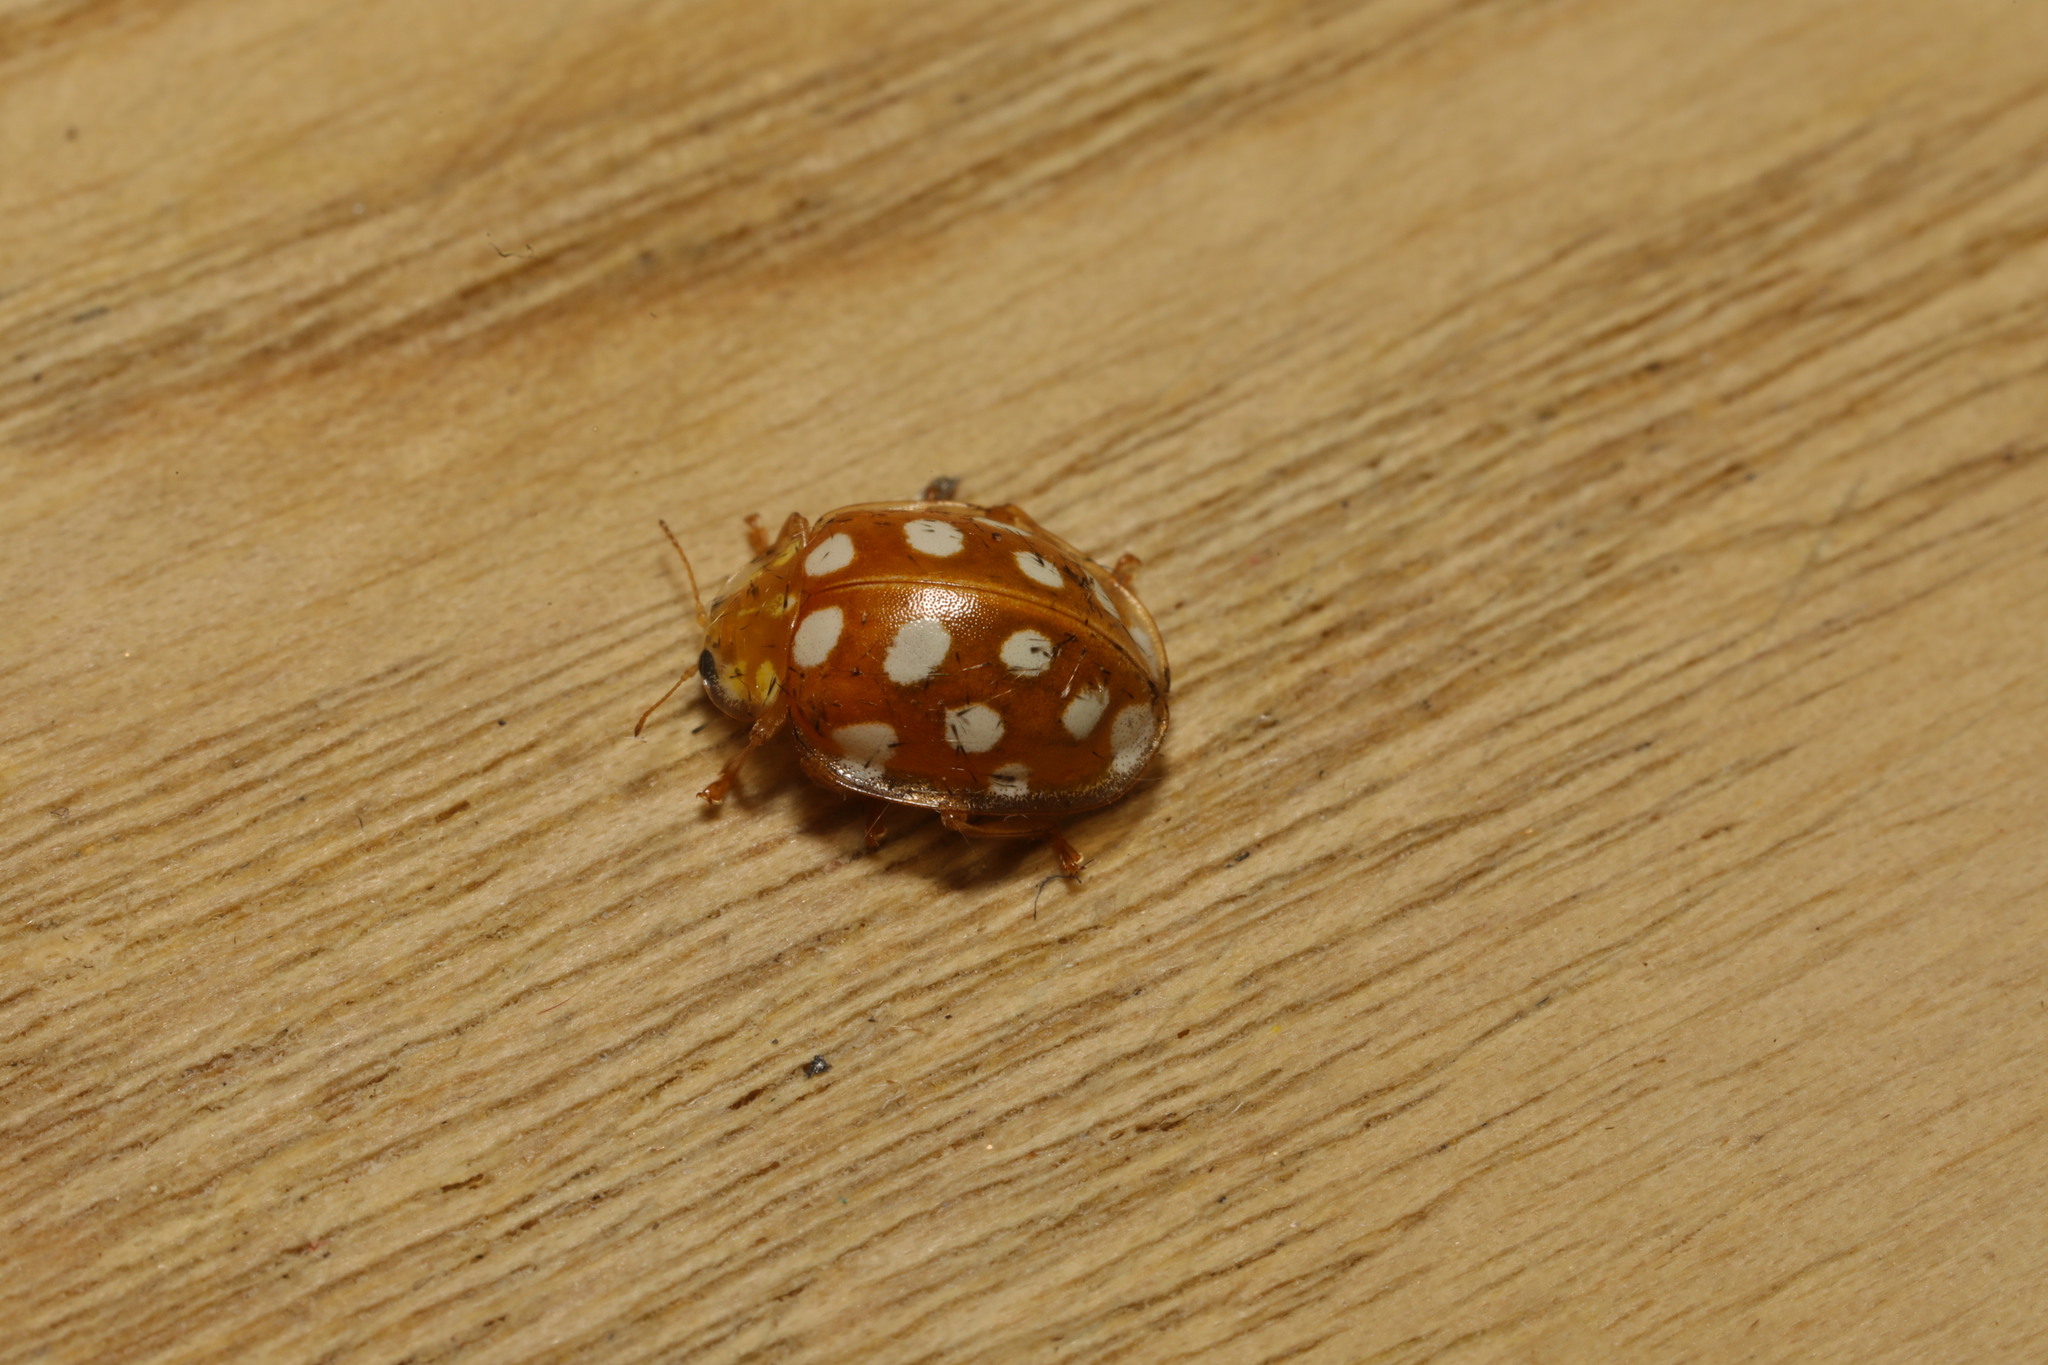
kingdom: Animalia
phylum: Arthropoda
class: Insecta
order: Coleoptera
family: Coccinellidae
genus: Halyzia
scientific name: Halyzia sedecimguttata
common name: Orange ladybird
